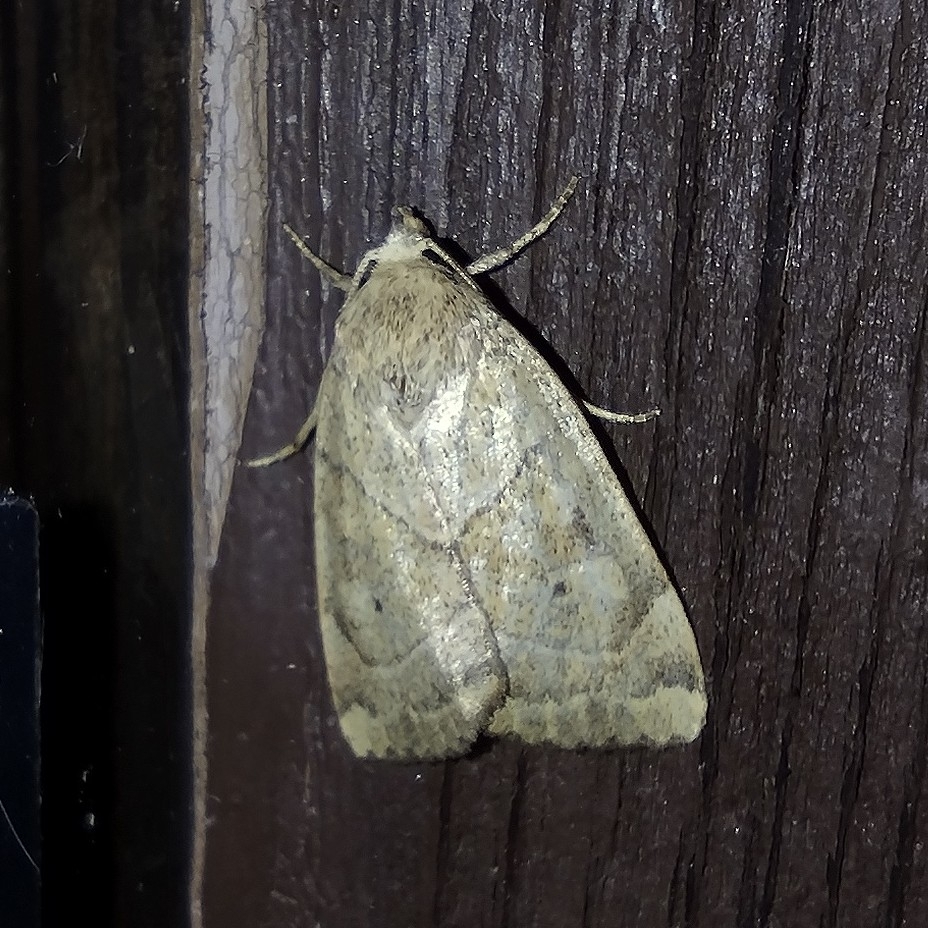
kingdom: Animalia
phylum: Arthropoda
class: Insecta
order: Lepidoptera
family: Noctuidae
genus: Cosmia
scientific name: Cosmia trapezina
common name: Dun-bar
